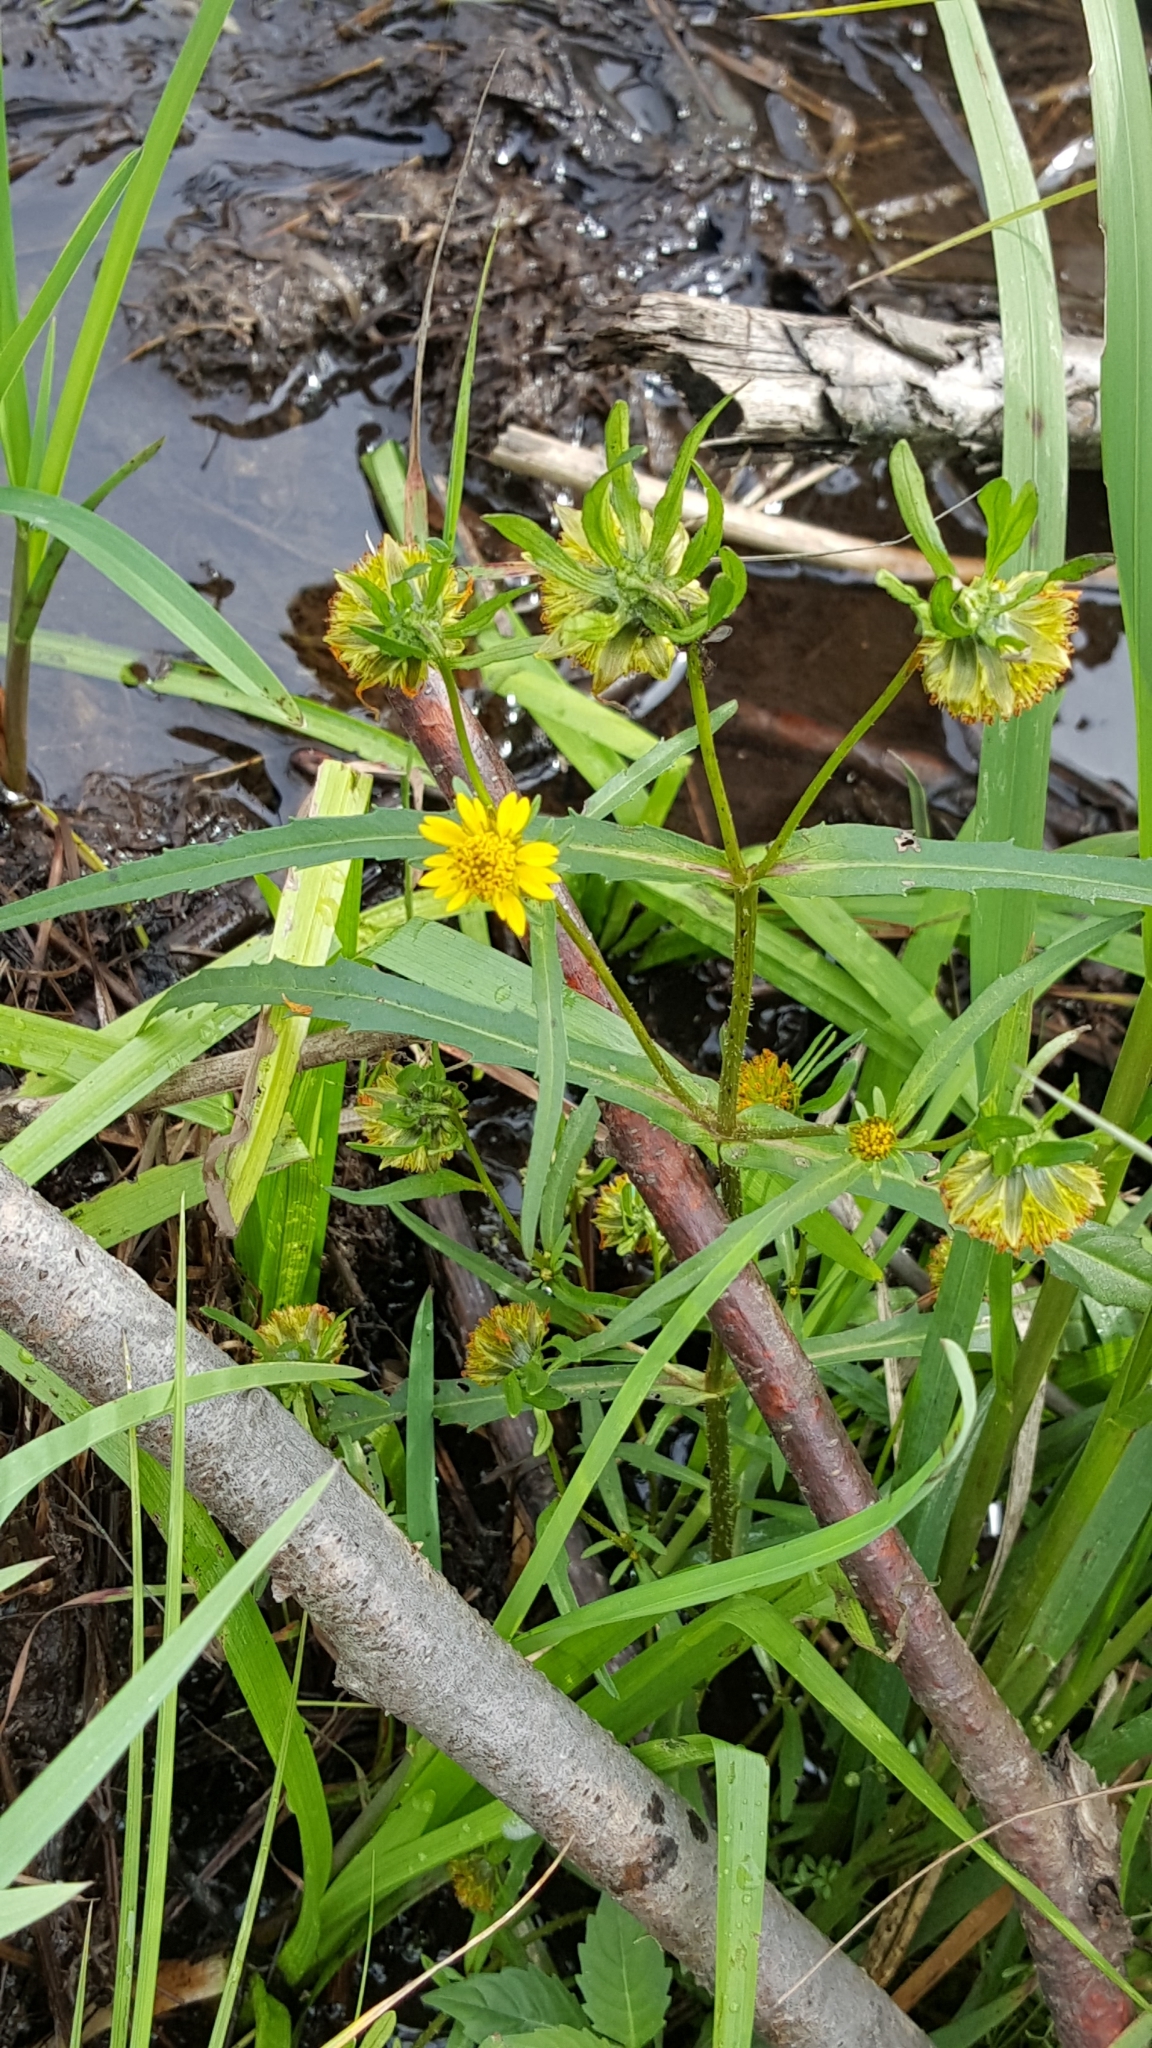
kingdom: Plantae
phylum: Tracheophyta
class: Magnoliopsida
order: Asterales
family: Asteraceae
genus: Bidens
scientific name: Bidens cernua
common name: Nodding bur-marigold
